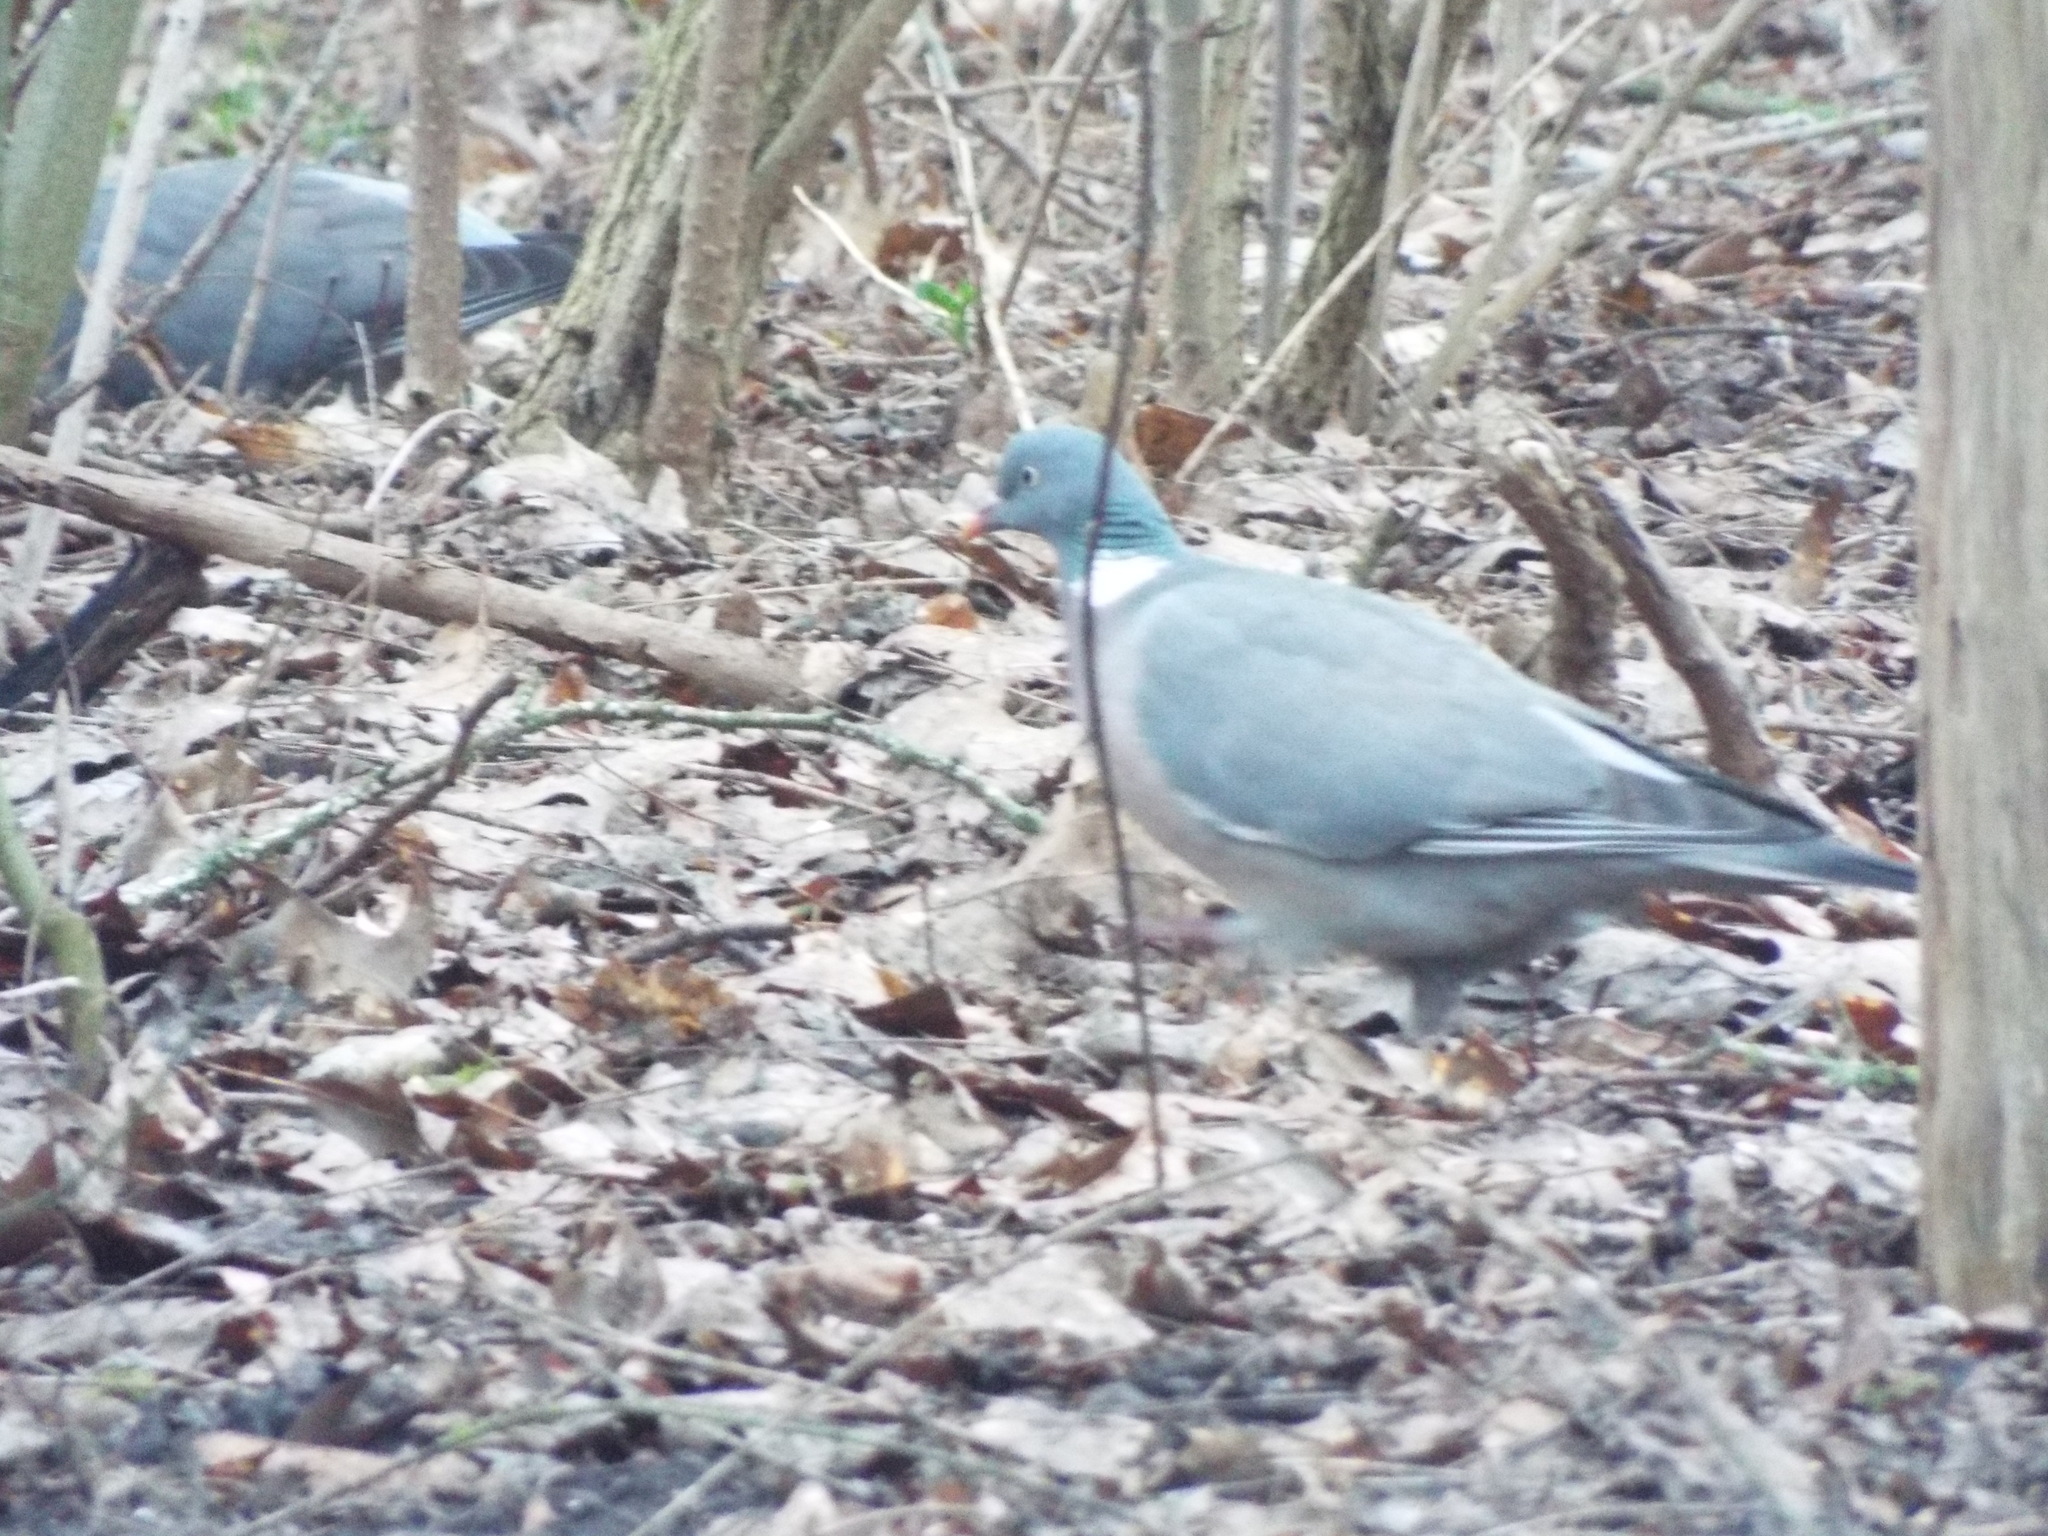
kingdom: Animalia
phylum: Chordata
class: Aves
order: Columbiformes
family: Columbidae
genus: Columba
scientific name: Columba palumbus
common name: Common wood pigeon
